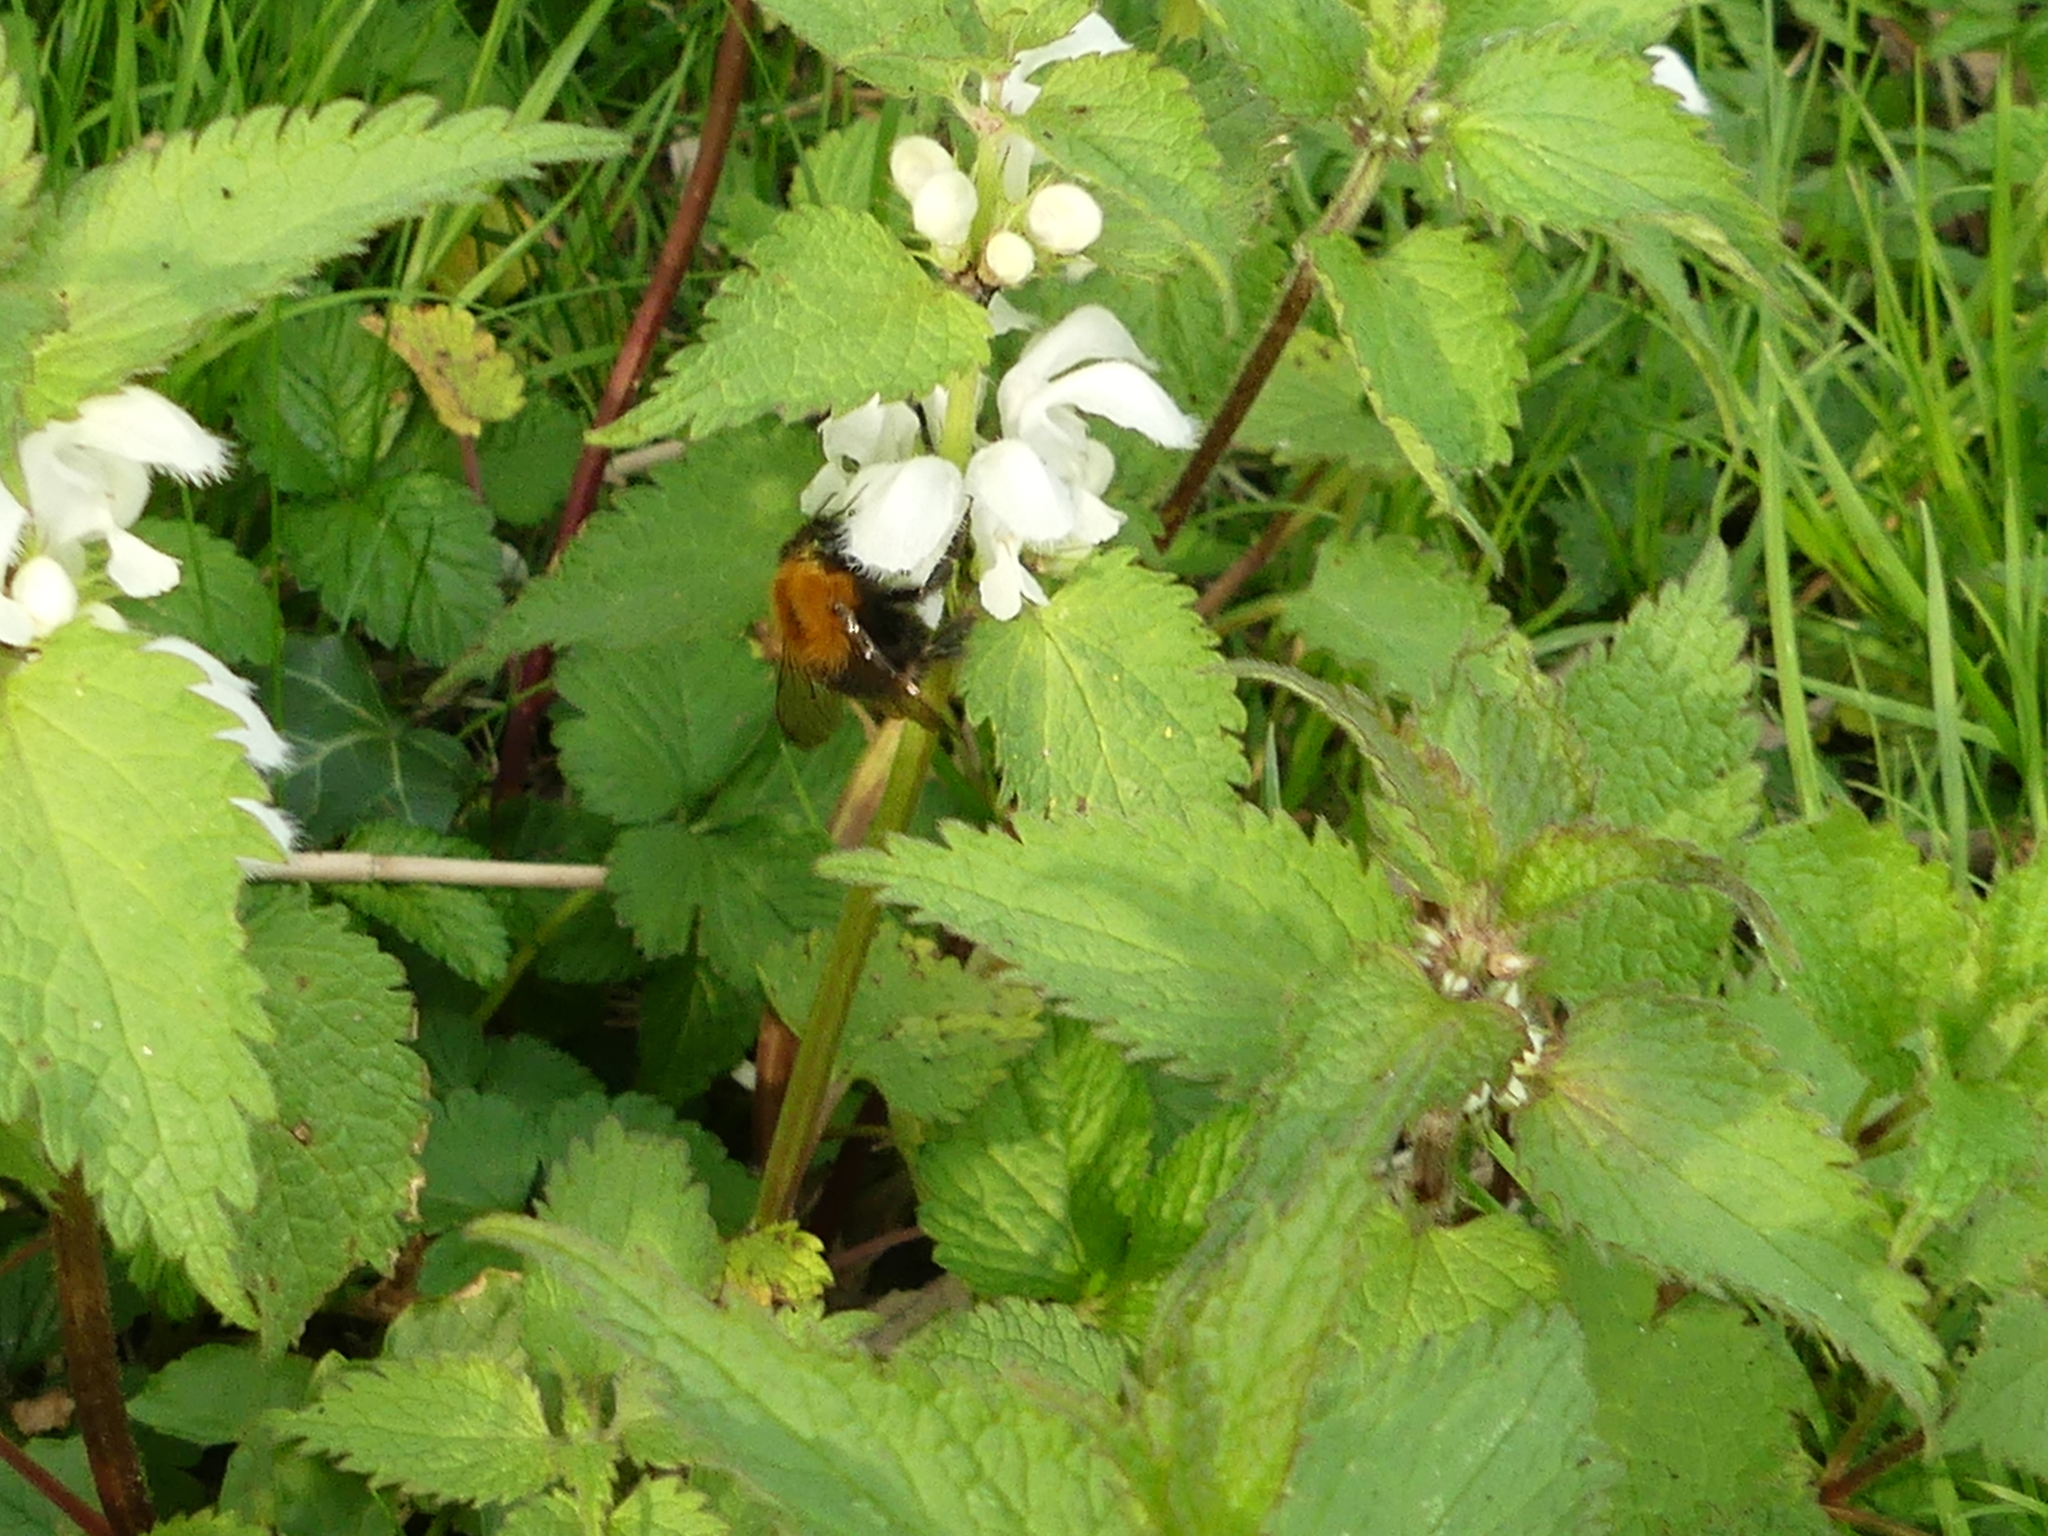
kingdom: Animalia
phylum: Arthropoda
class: Insecta
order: Hymenoptera
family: Apidae
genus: Bombus
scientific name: Bombus pascuorum
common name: Common carder bee
